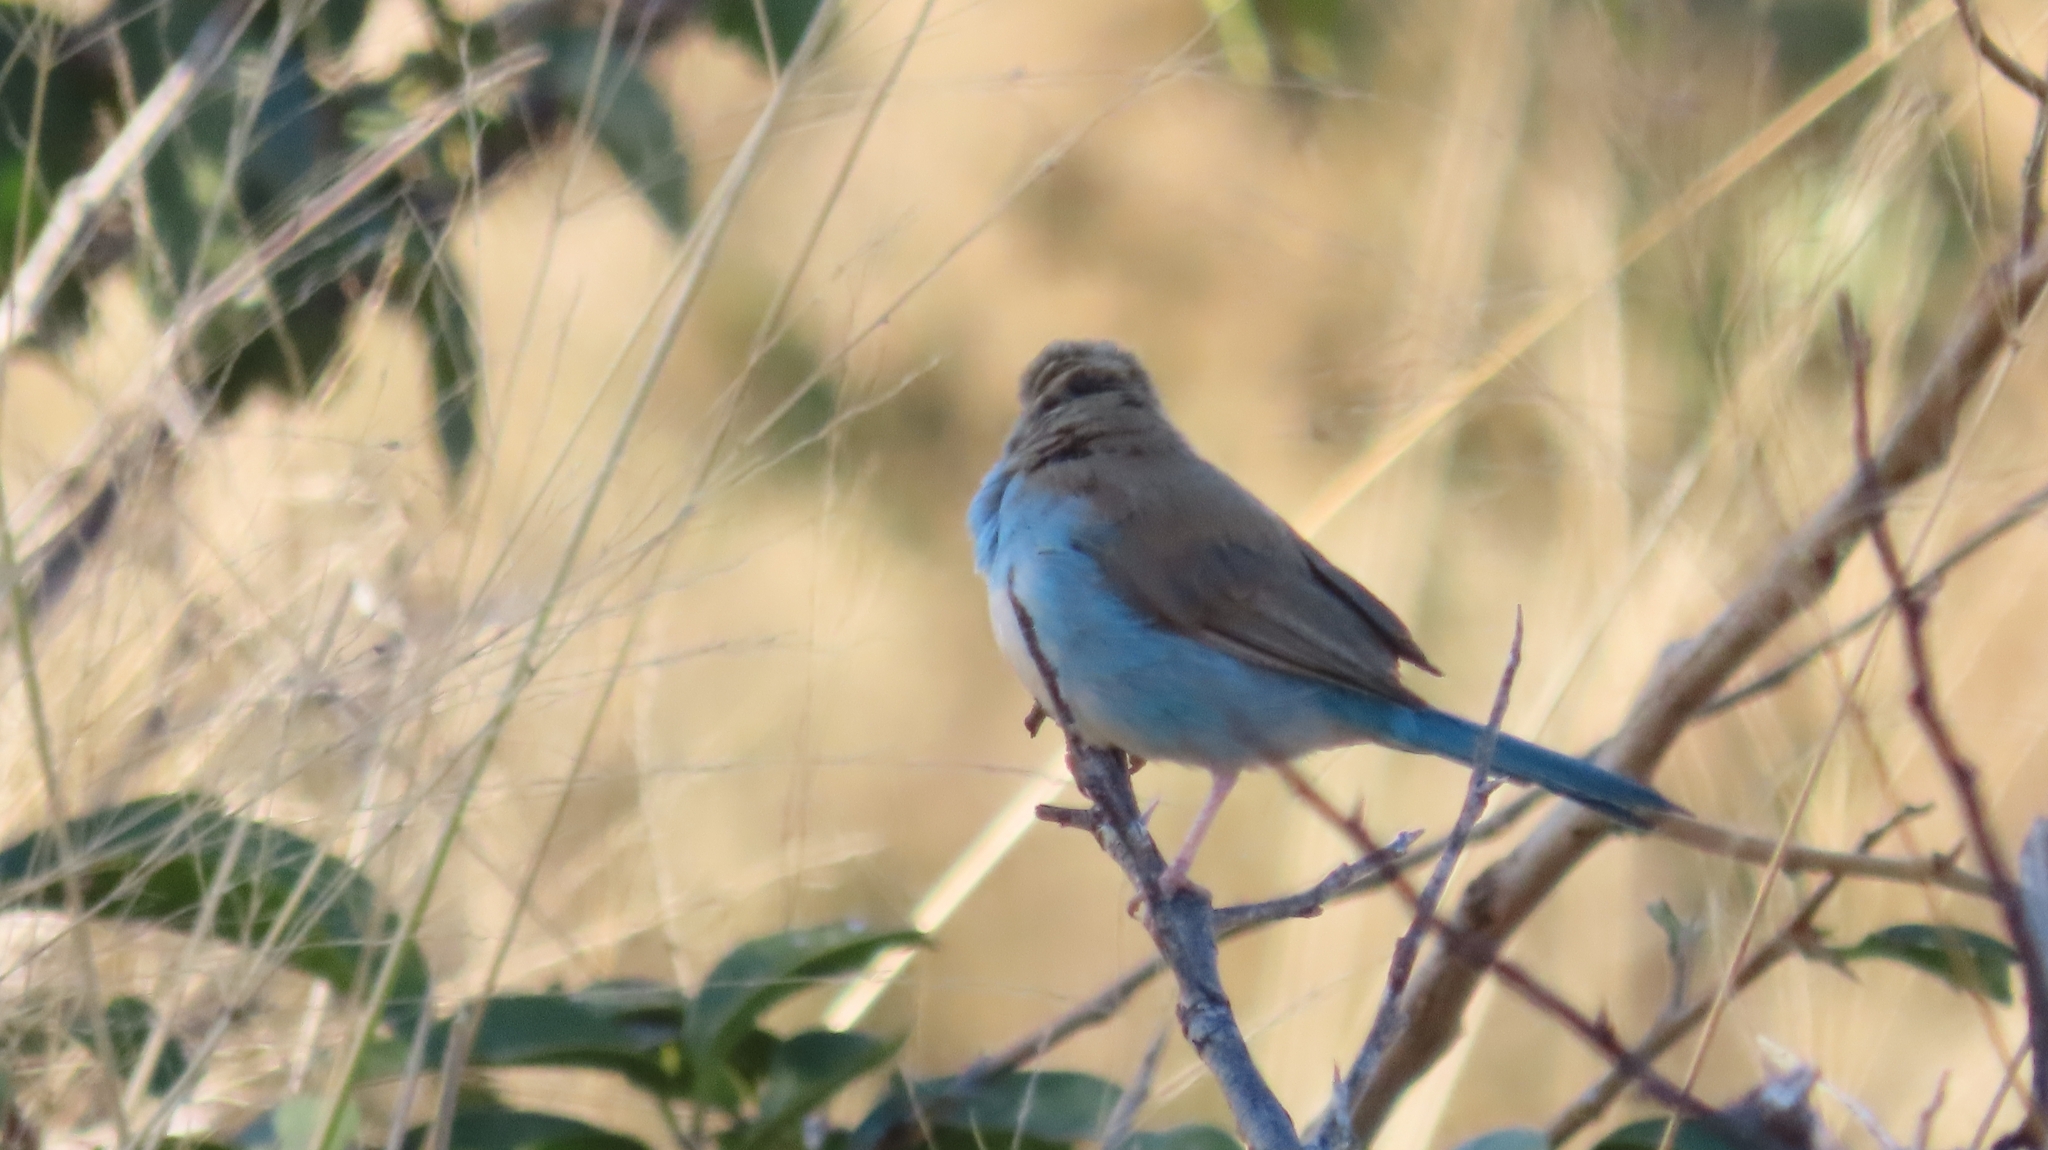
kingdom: Animalia
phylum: Chordata
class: Aves
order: Passeriformes
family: Estrildidae
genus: Uraeginthus
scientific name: Uraeginthus angolensis
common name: Blue waxbill
